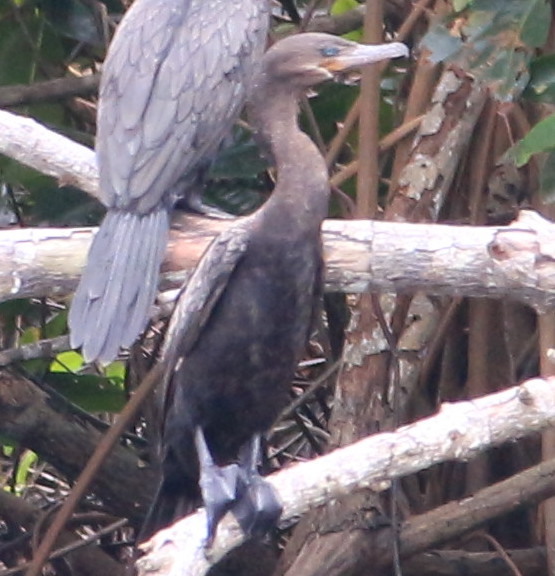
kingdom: Animalia
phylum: Chordata
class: Aves
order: Suliformes
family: Phalacrocoracidae
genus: Phalacrocorax
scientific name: Phalacrocorax brasilianus
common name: Neotropic cormorant
